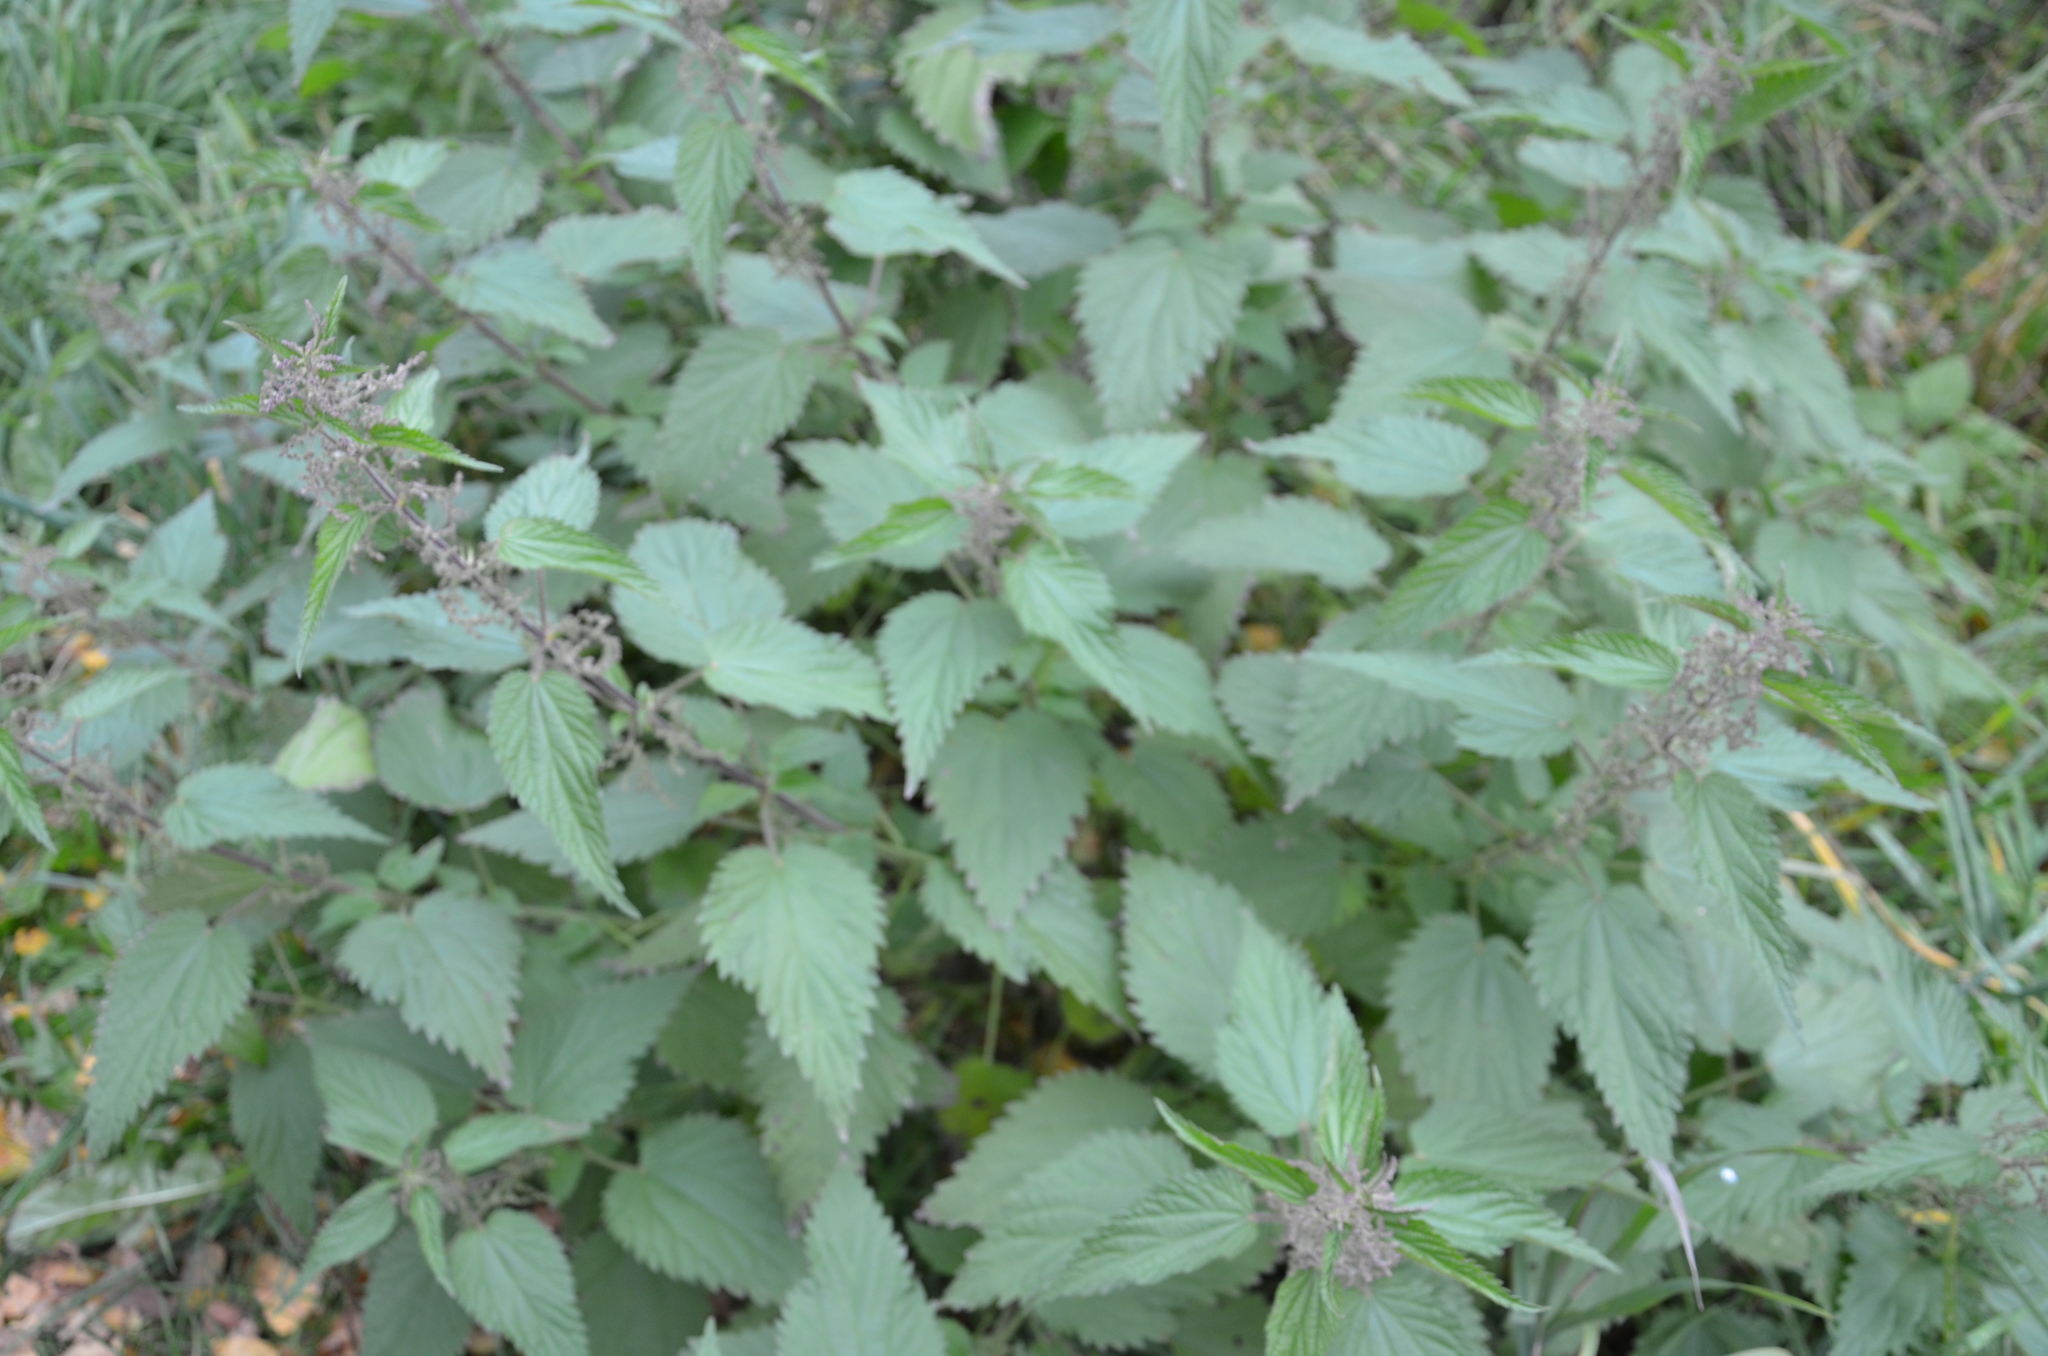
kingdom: Plantae
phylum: Tracheophyta
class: Magnoliopsida
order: Rosales
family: Urticaceae
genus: Urtica
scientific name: Urtica dioica
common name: Common nettle
